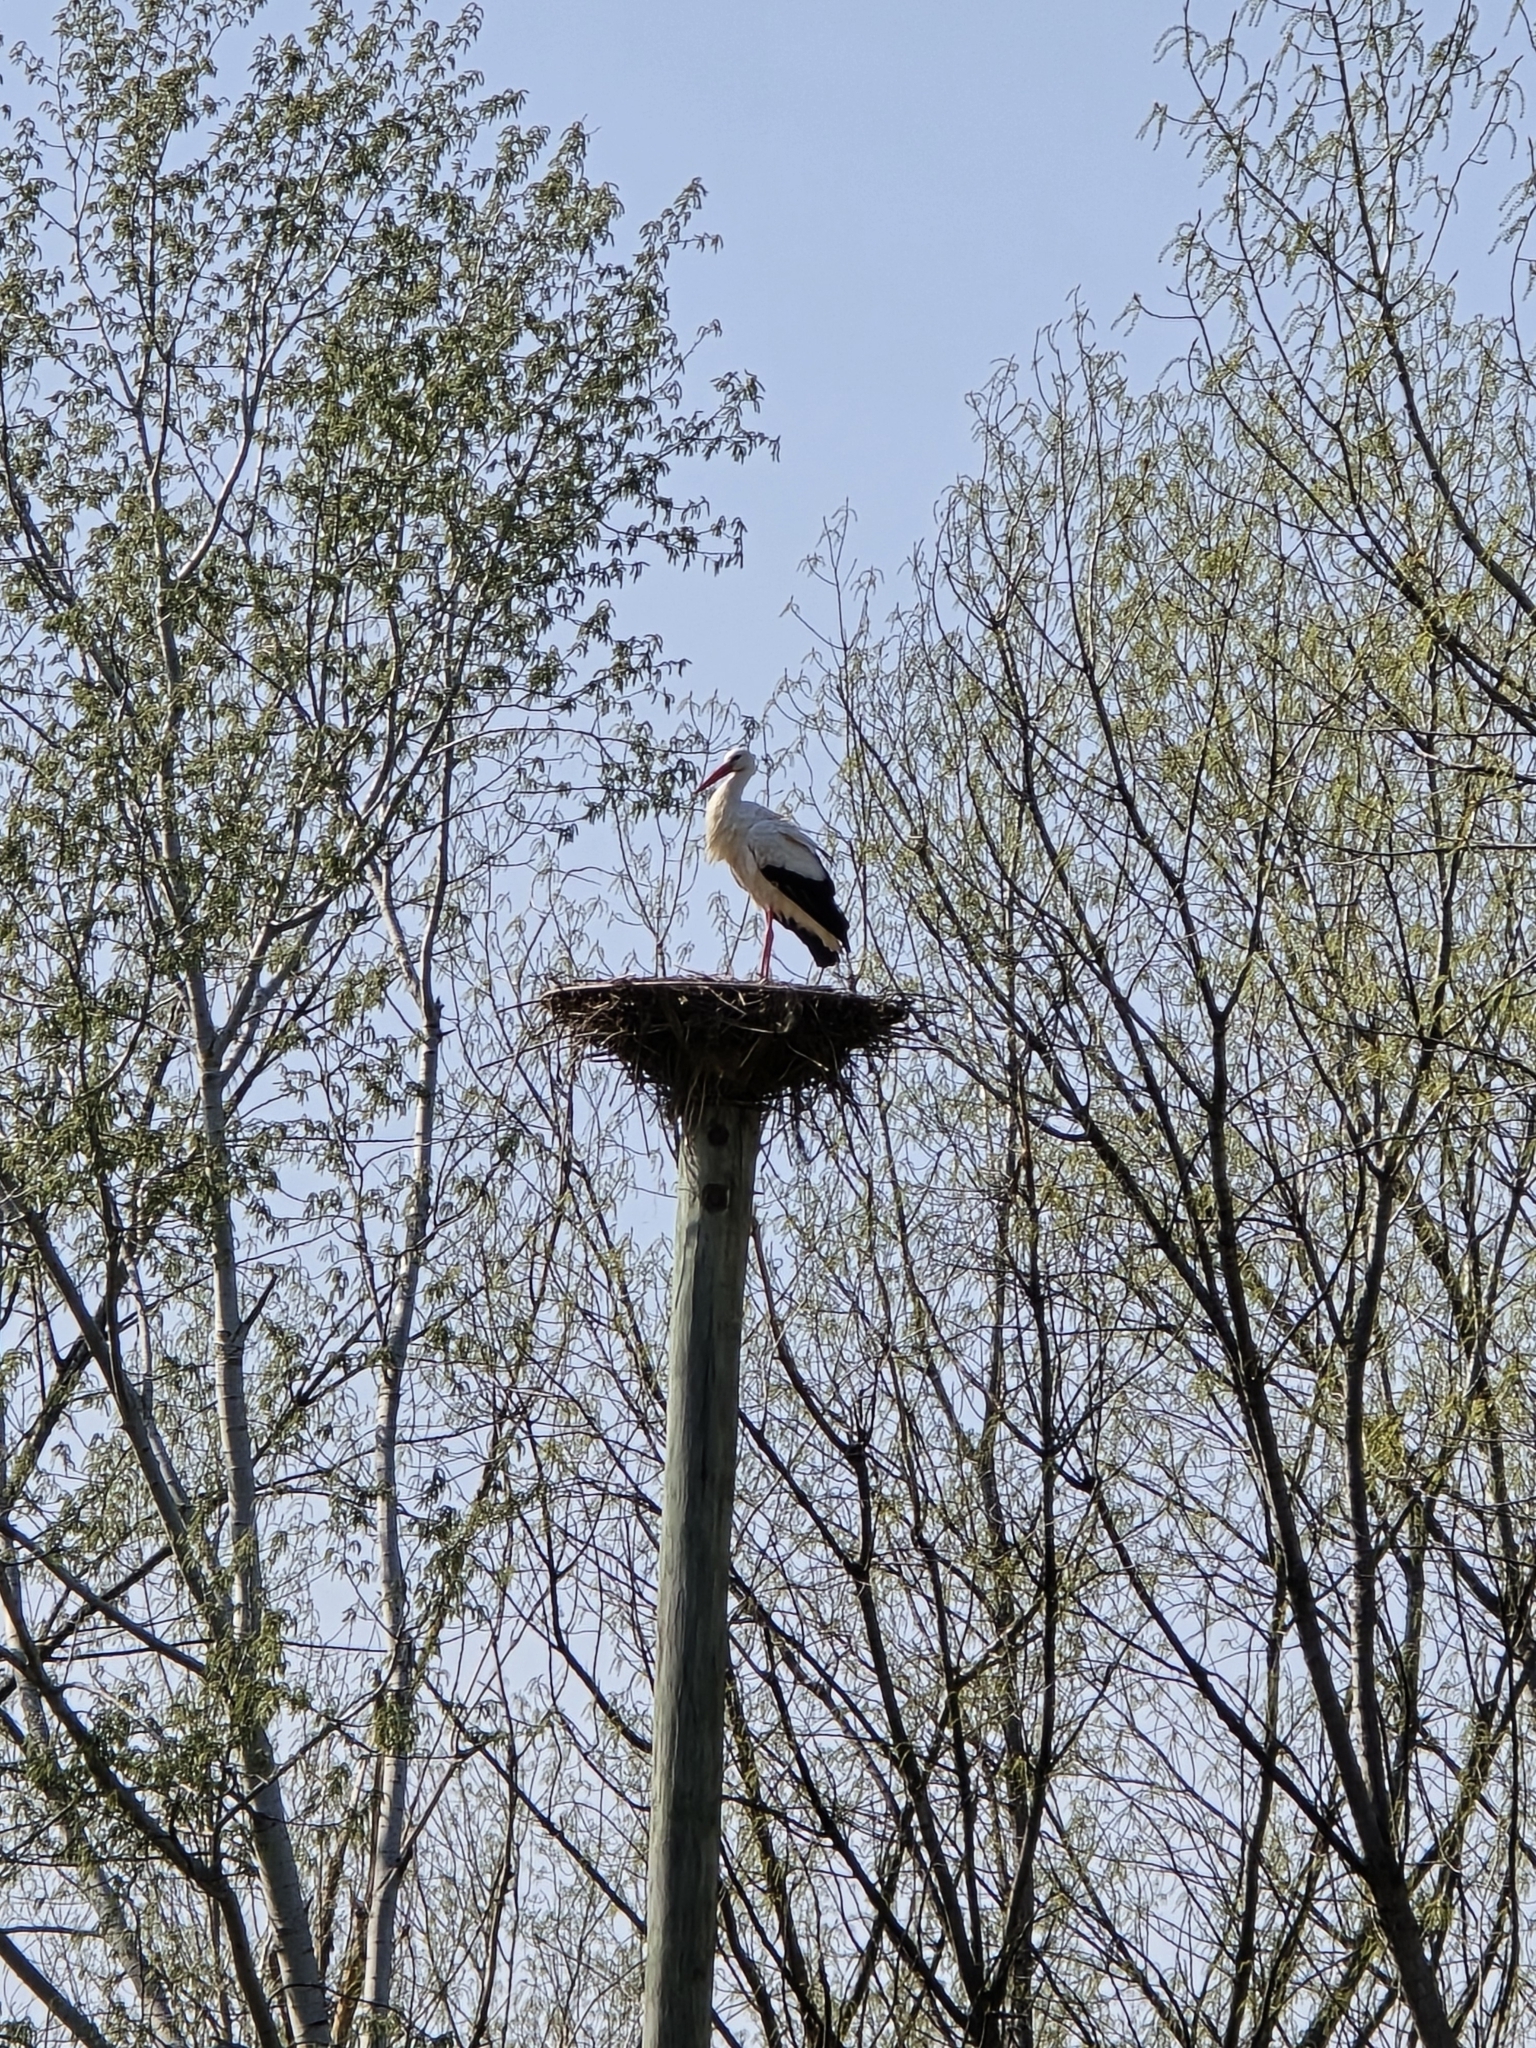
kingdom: Animalia
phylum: Chordata
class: Aves
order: Ciconiiformes
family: Ciconiidae
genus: Ciconia
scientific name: Ciconia ciconia
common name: White stork
